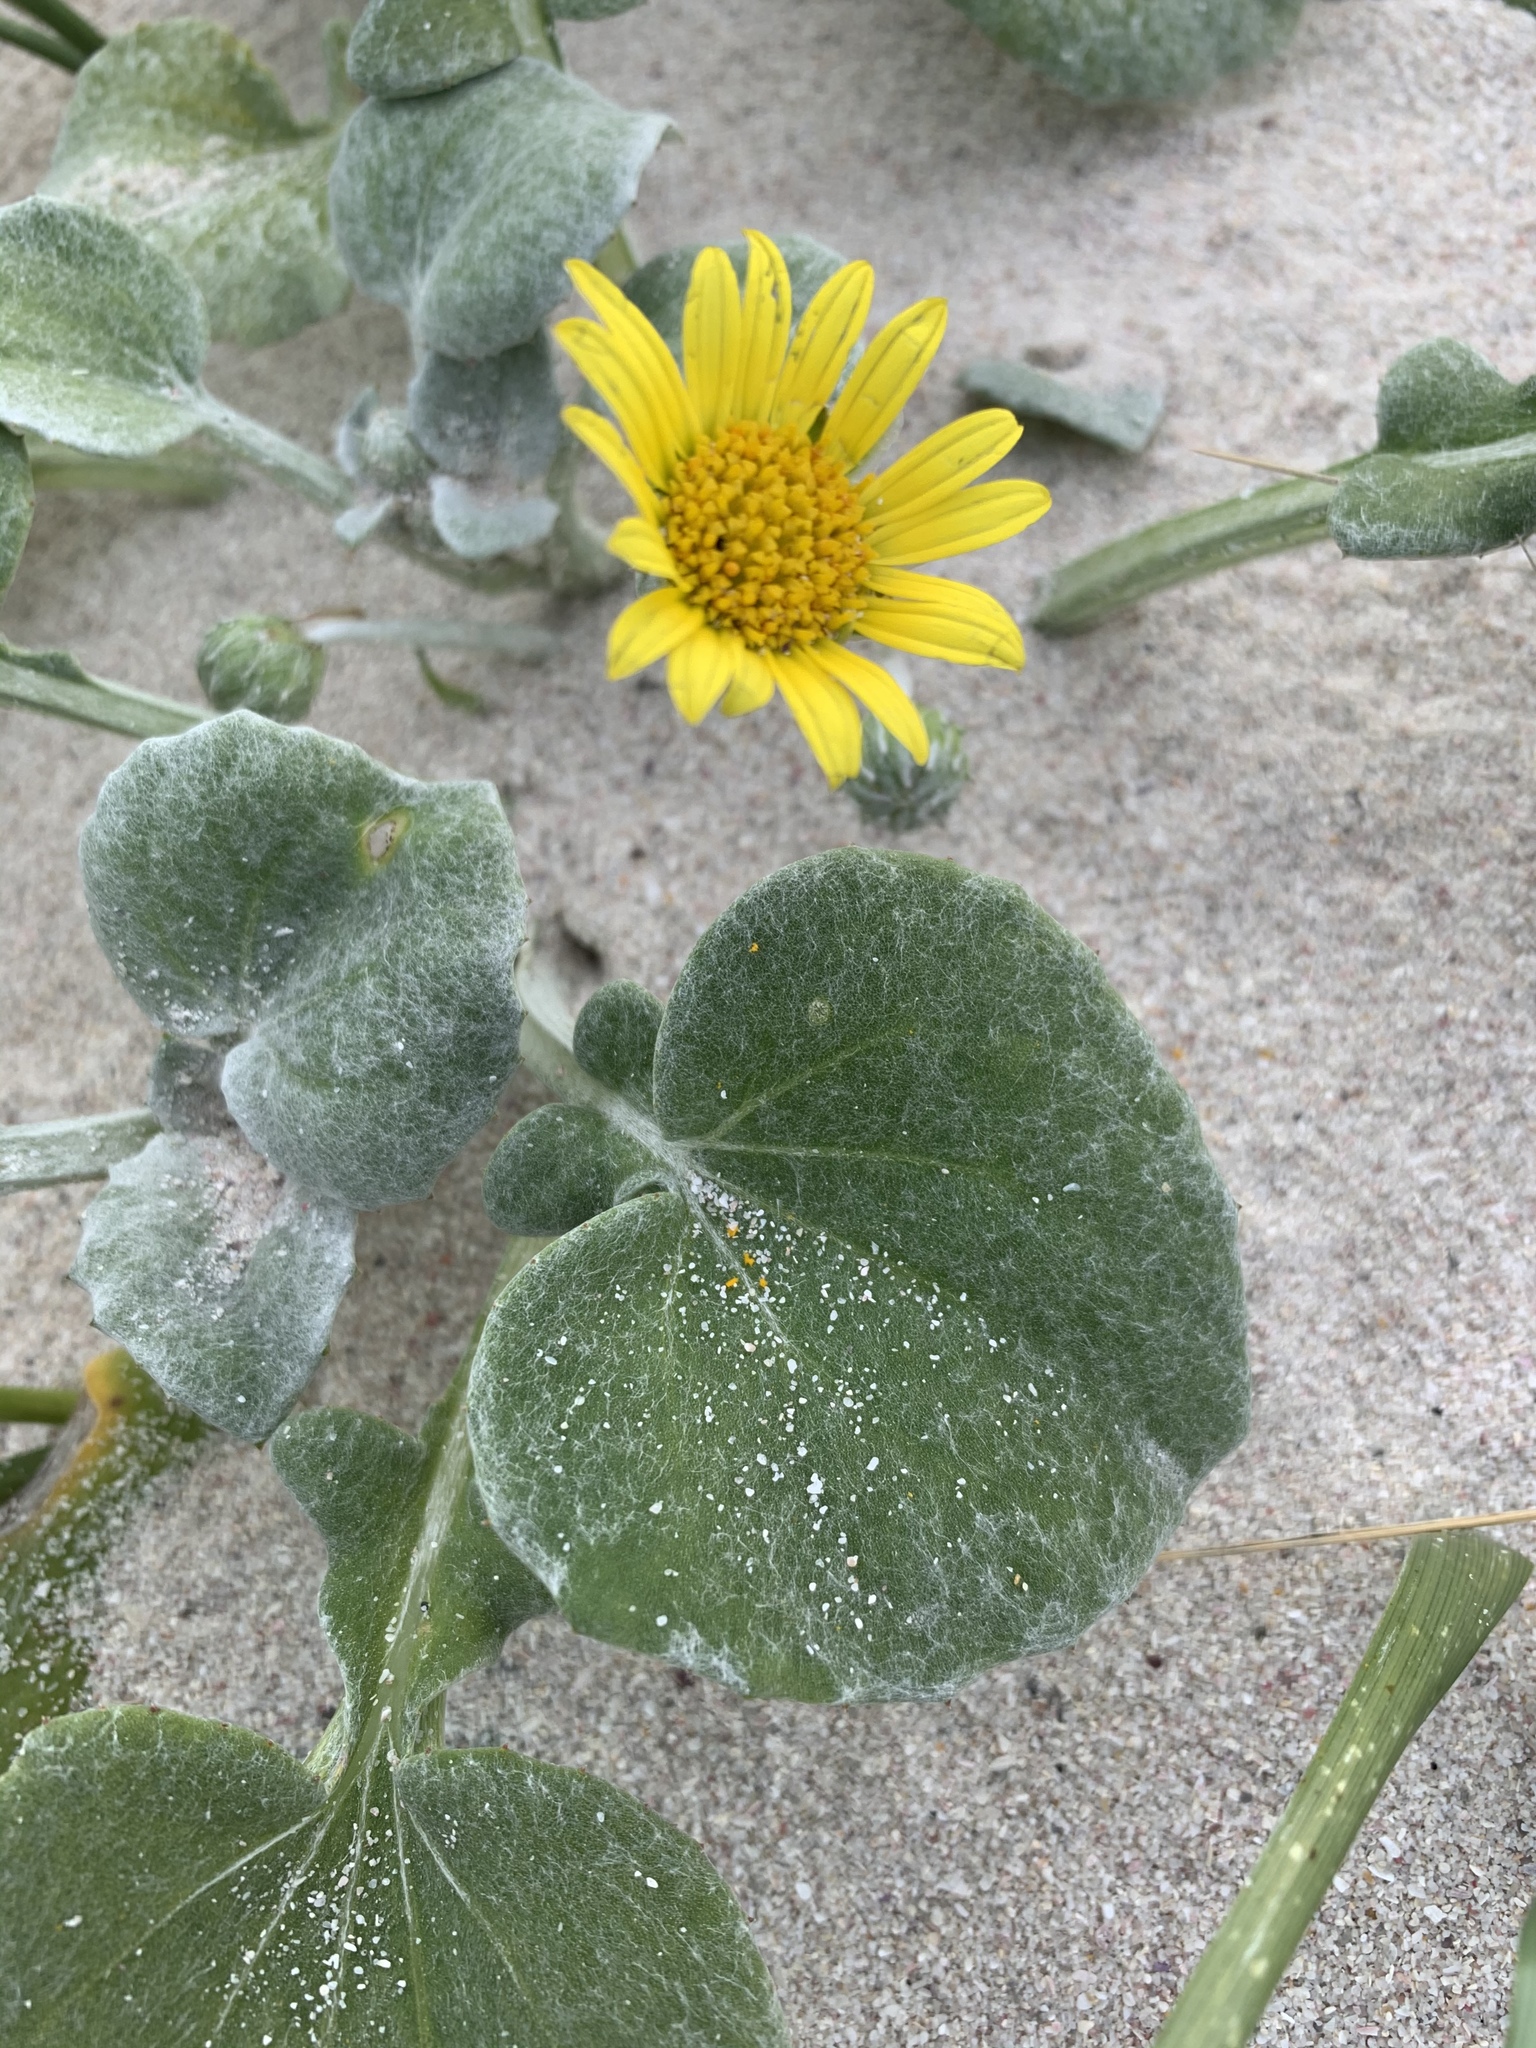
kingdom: Plantae
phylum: Tracheophyta
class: Magnoliopsida
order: Asterales
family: Asteraceae
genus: Arctotheca
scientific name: Arctotheca populifolia
